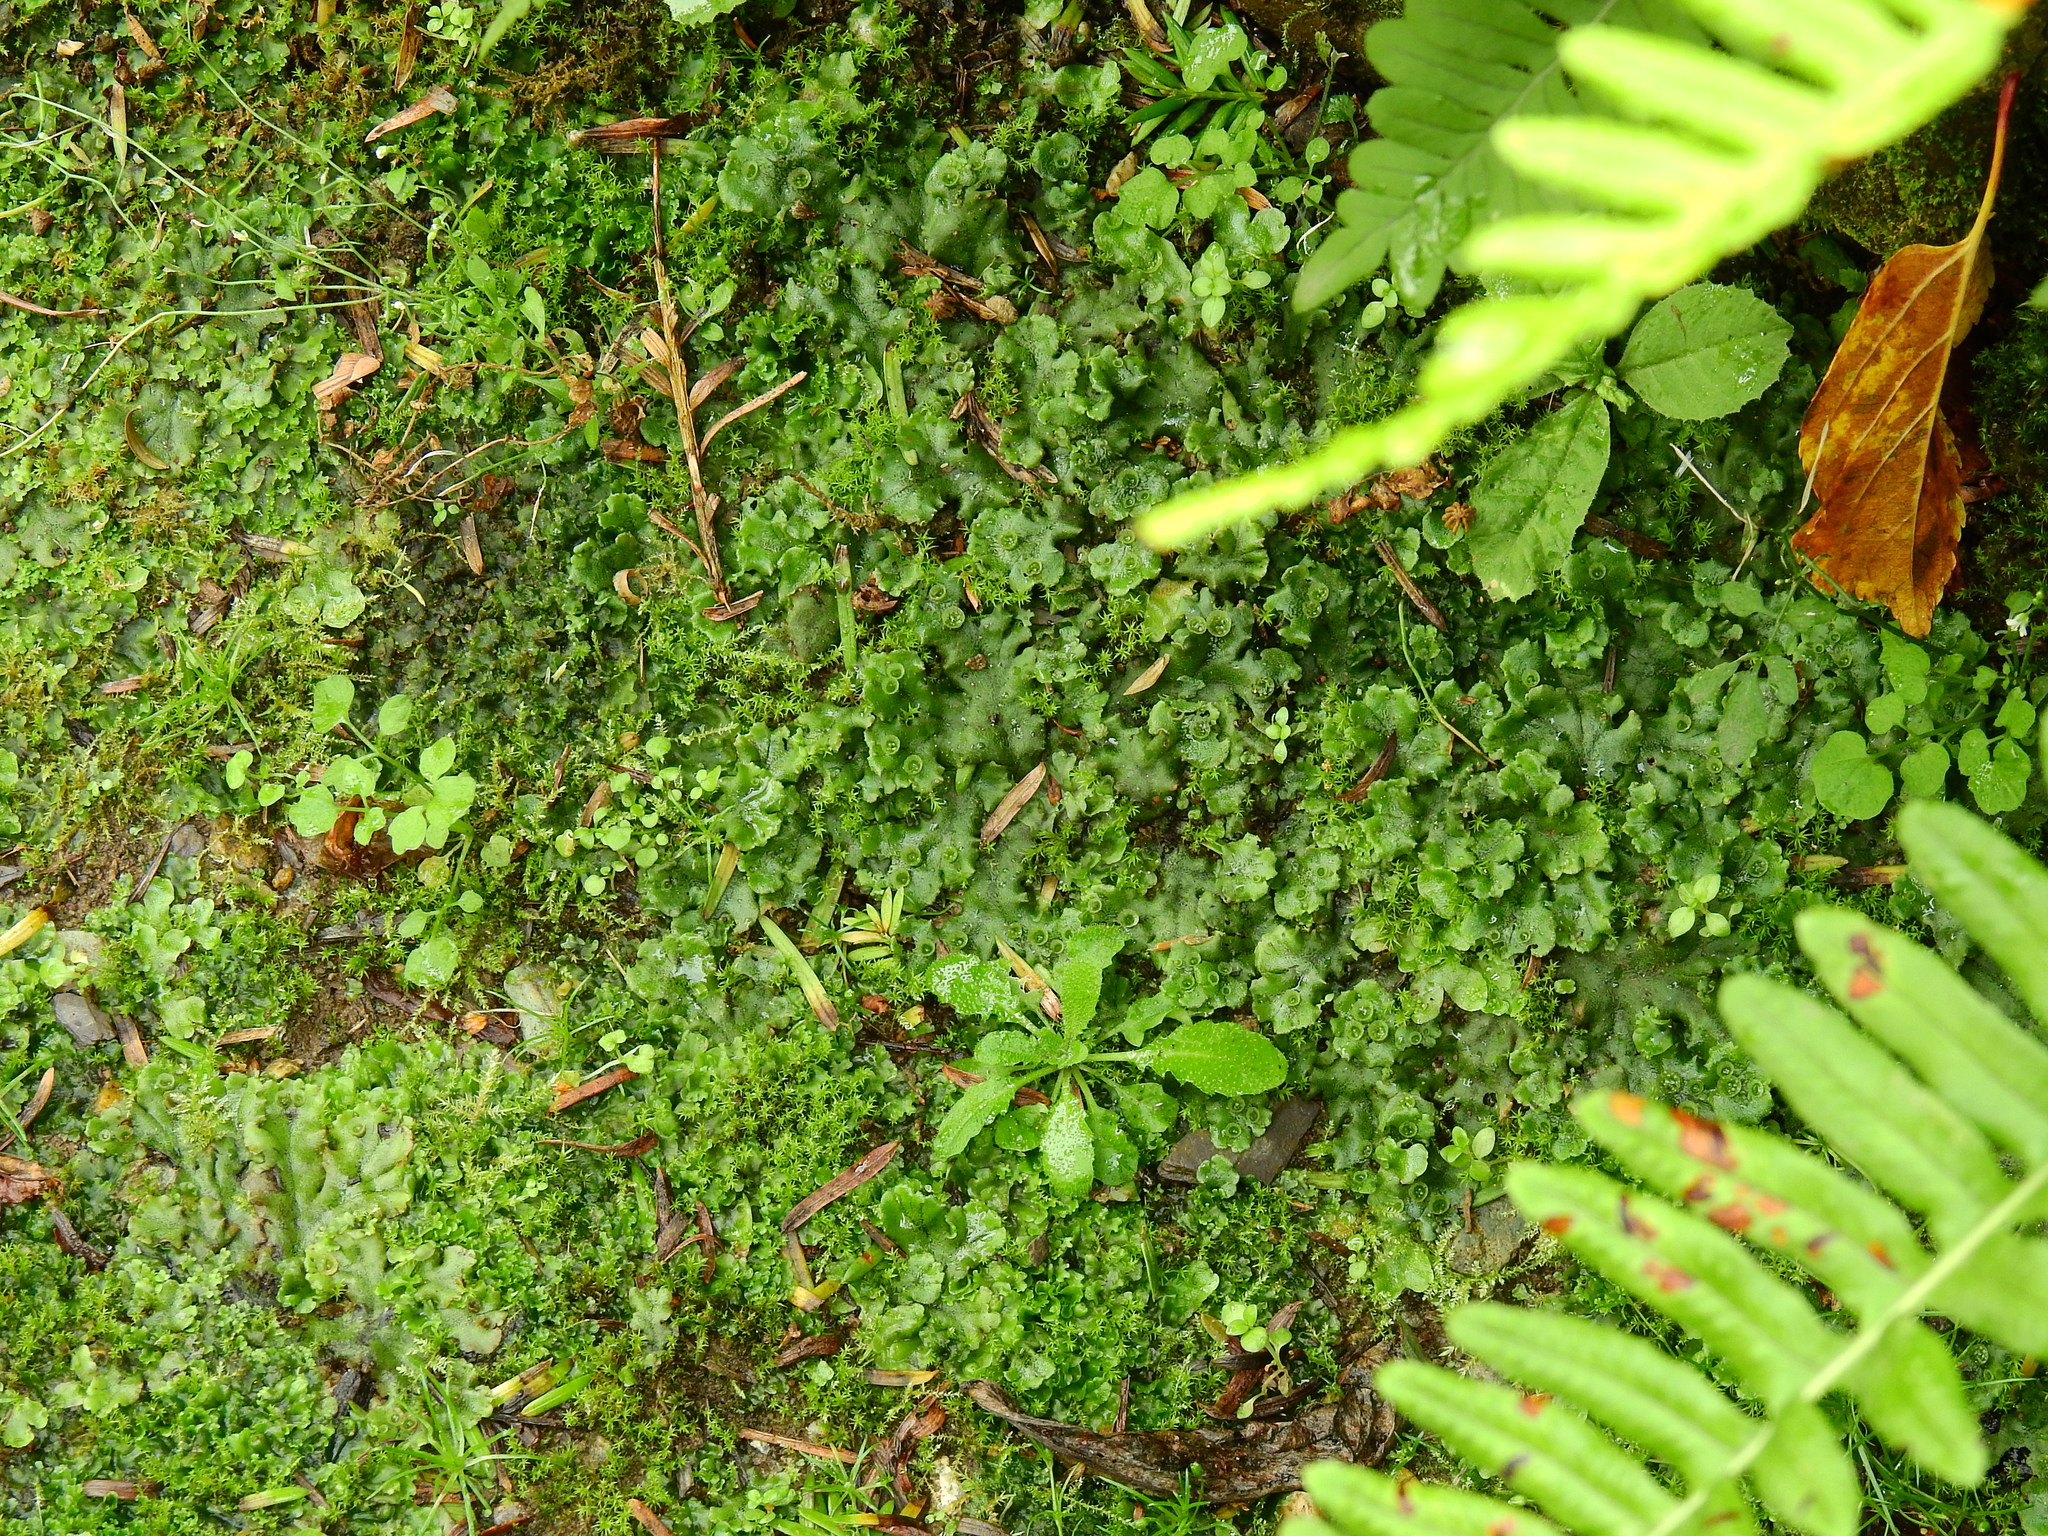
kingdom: Plantae
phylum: Marchantiophyta
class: Marchantiopsida
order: Marchantiales
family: Marchantiaceae
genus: Marchantia
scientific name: Marchantia polymorpha
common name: Common liverwort
